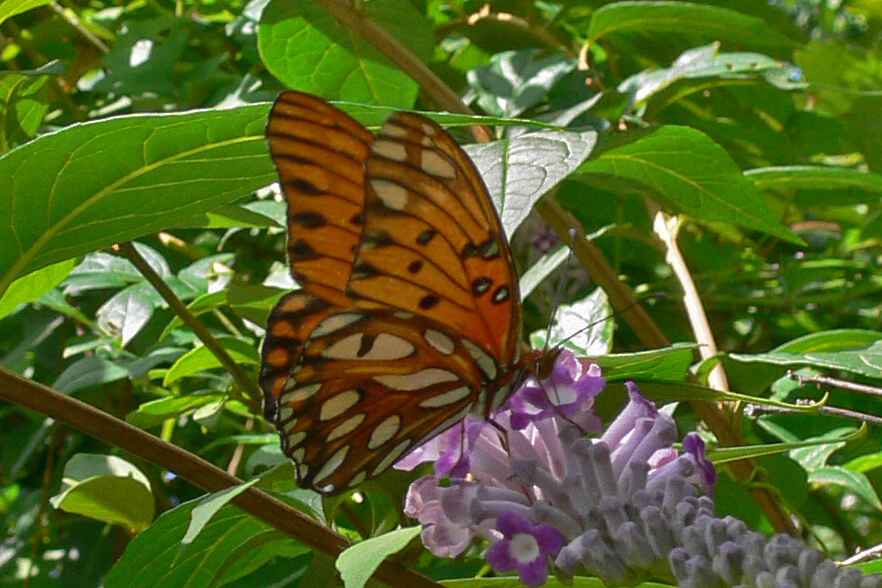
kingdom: Animalia
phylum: Arthropoda
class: Insecta
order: Lepidoptera
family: Nymphalidae
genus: Dione
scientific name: Dione vanillae
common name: Gulf fritillary
